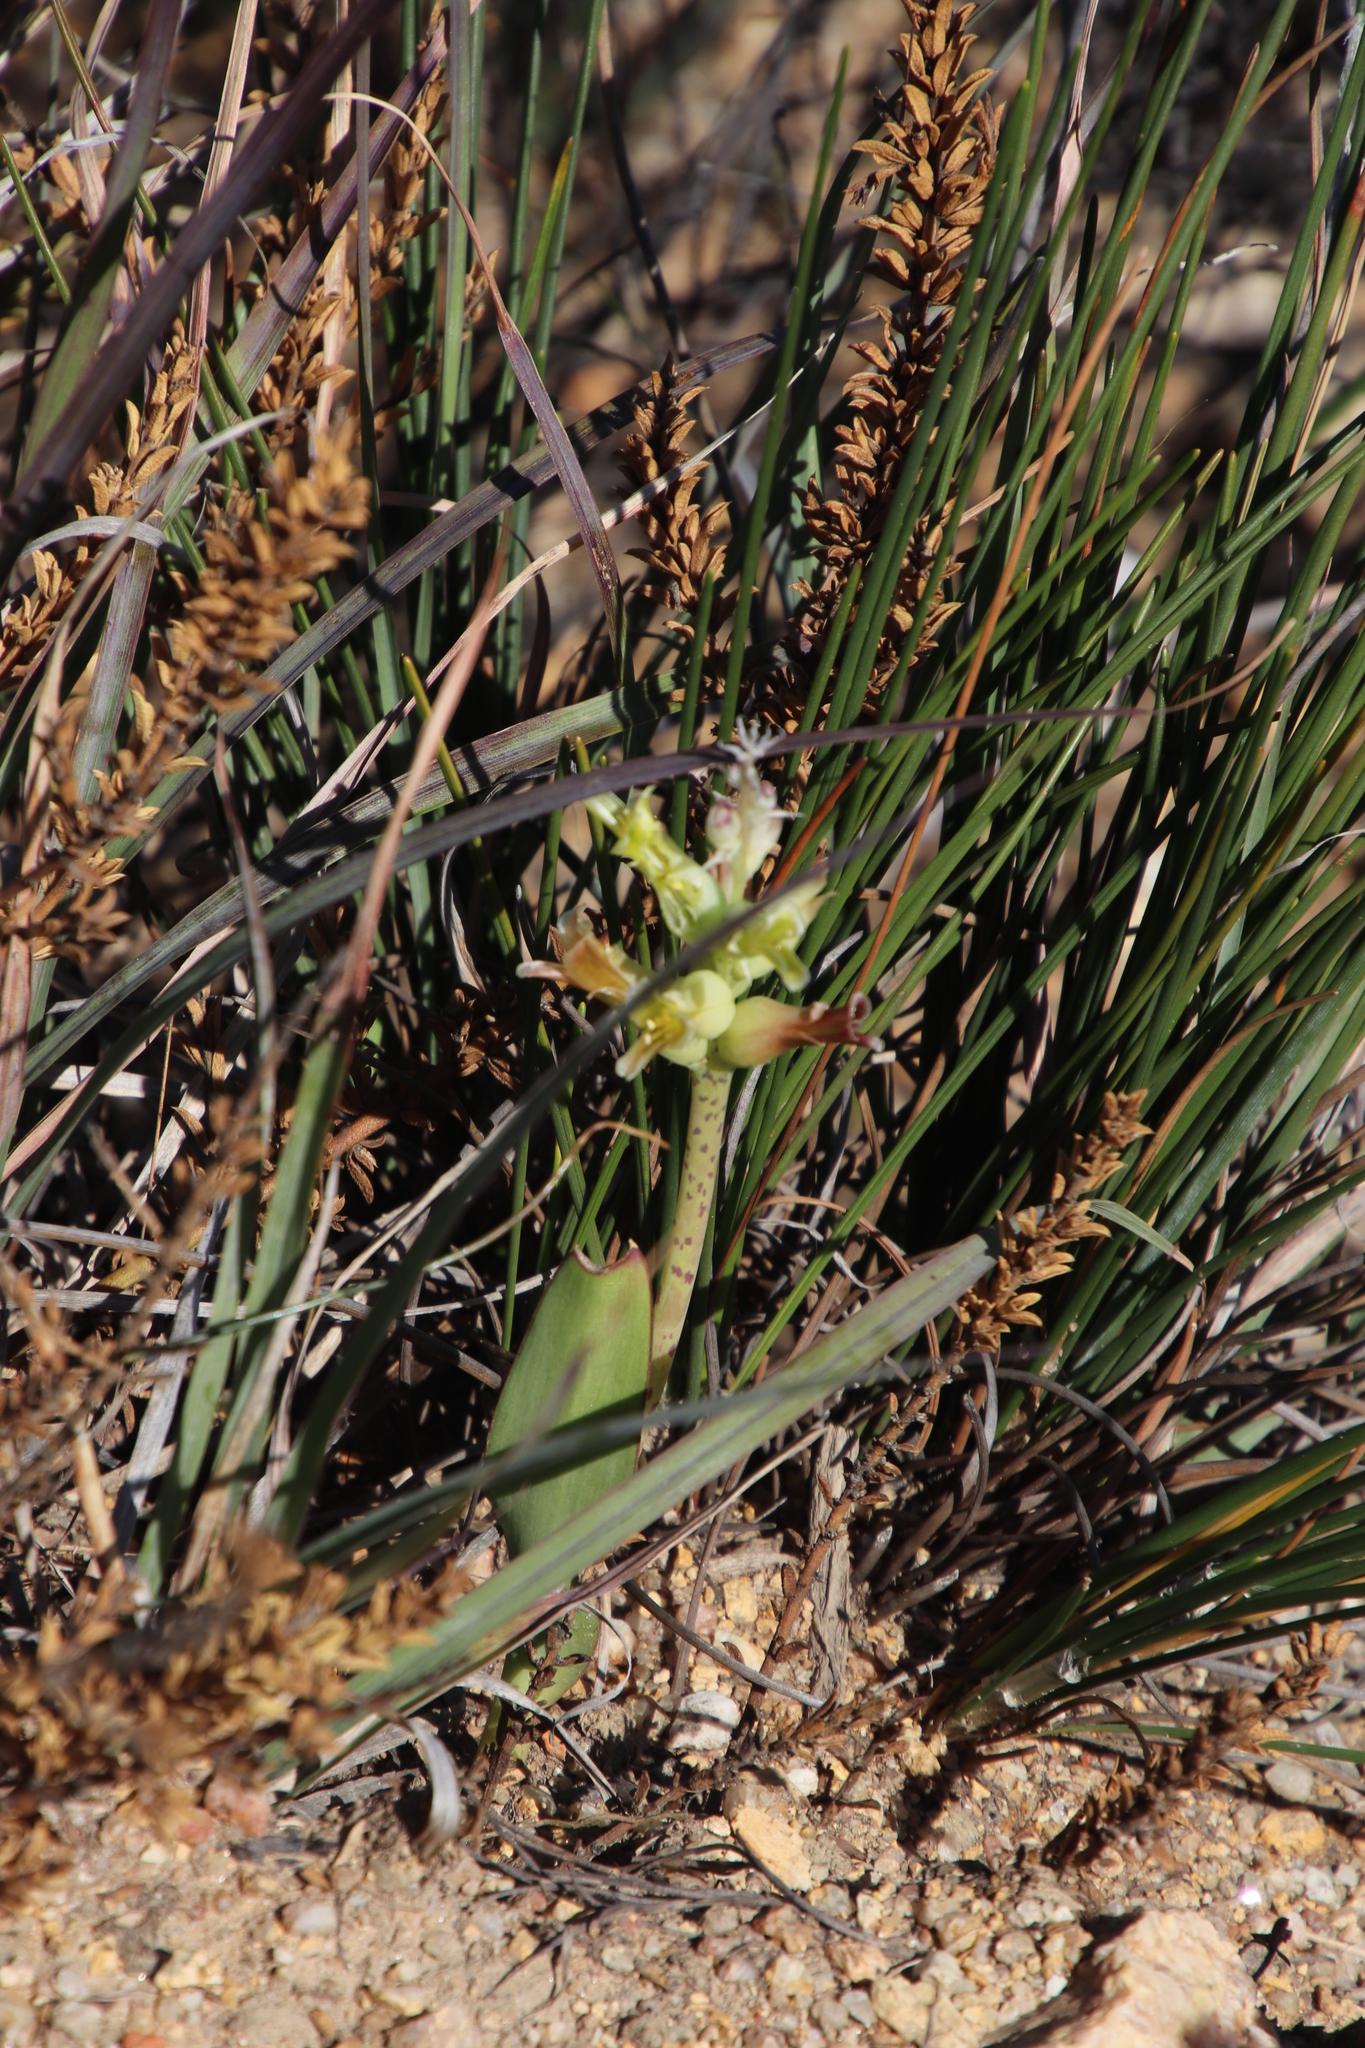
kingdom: Plantae
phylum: Tracheophyta
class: Liliopsida
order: Asparagales
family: Asparagaceae
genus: Lachenalia
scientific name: Lachenalia orchioides
